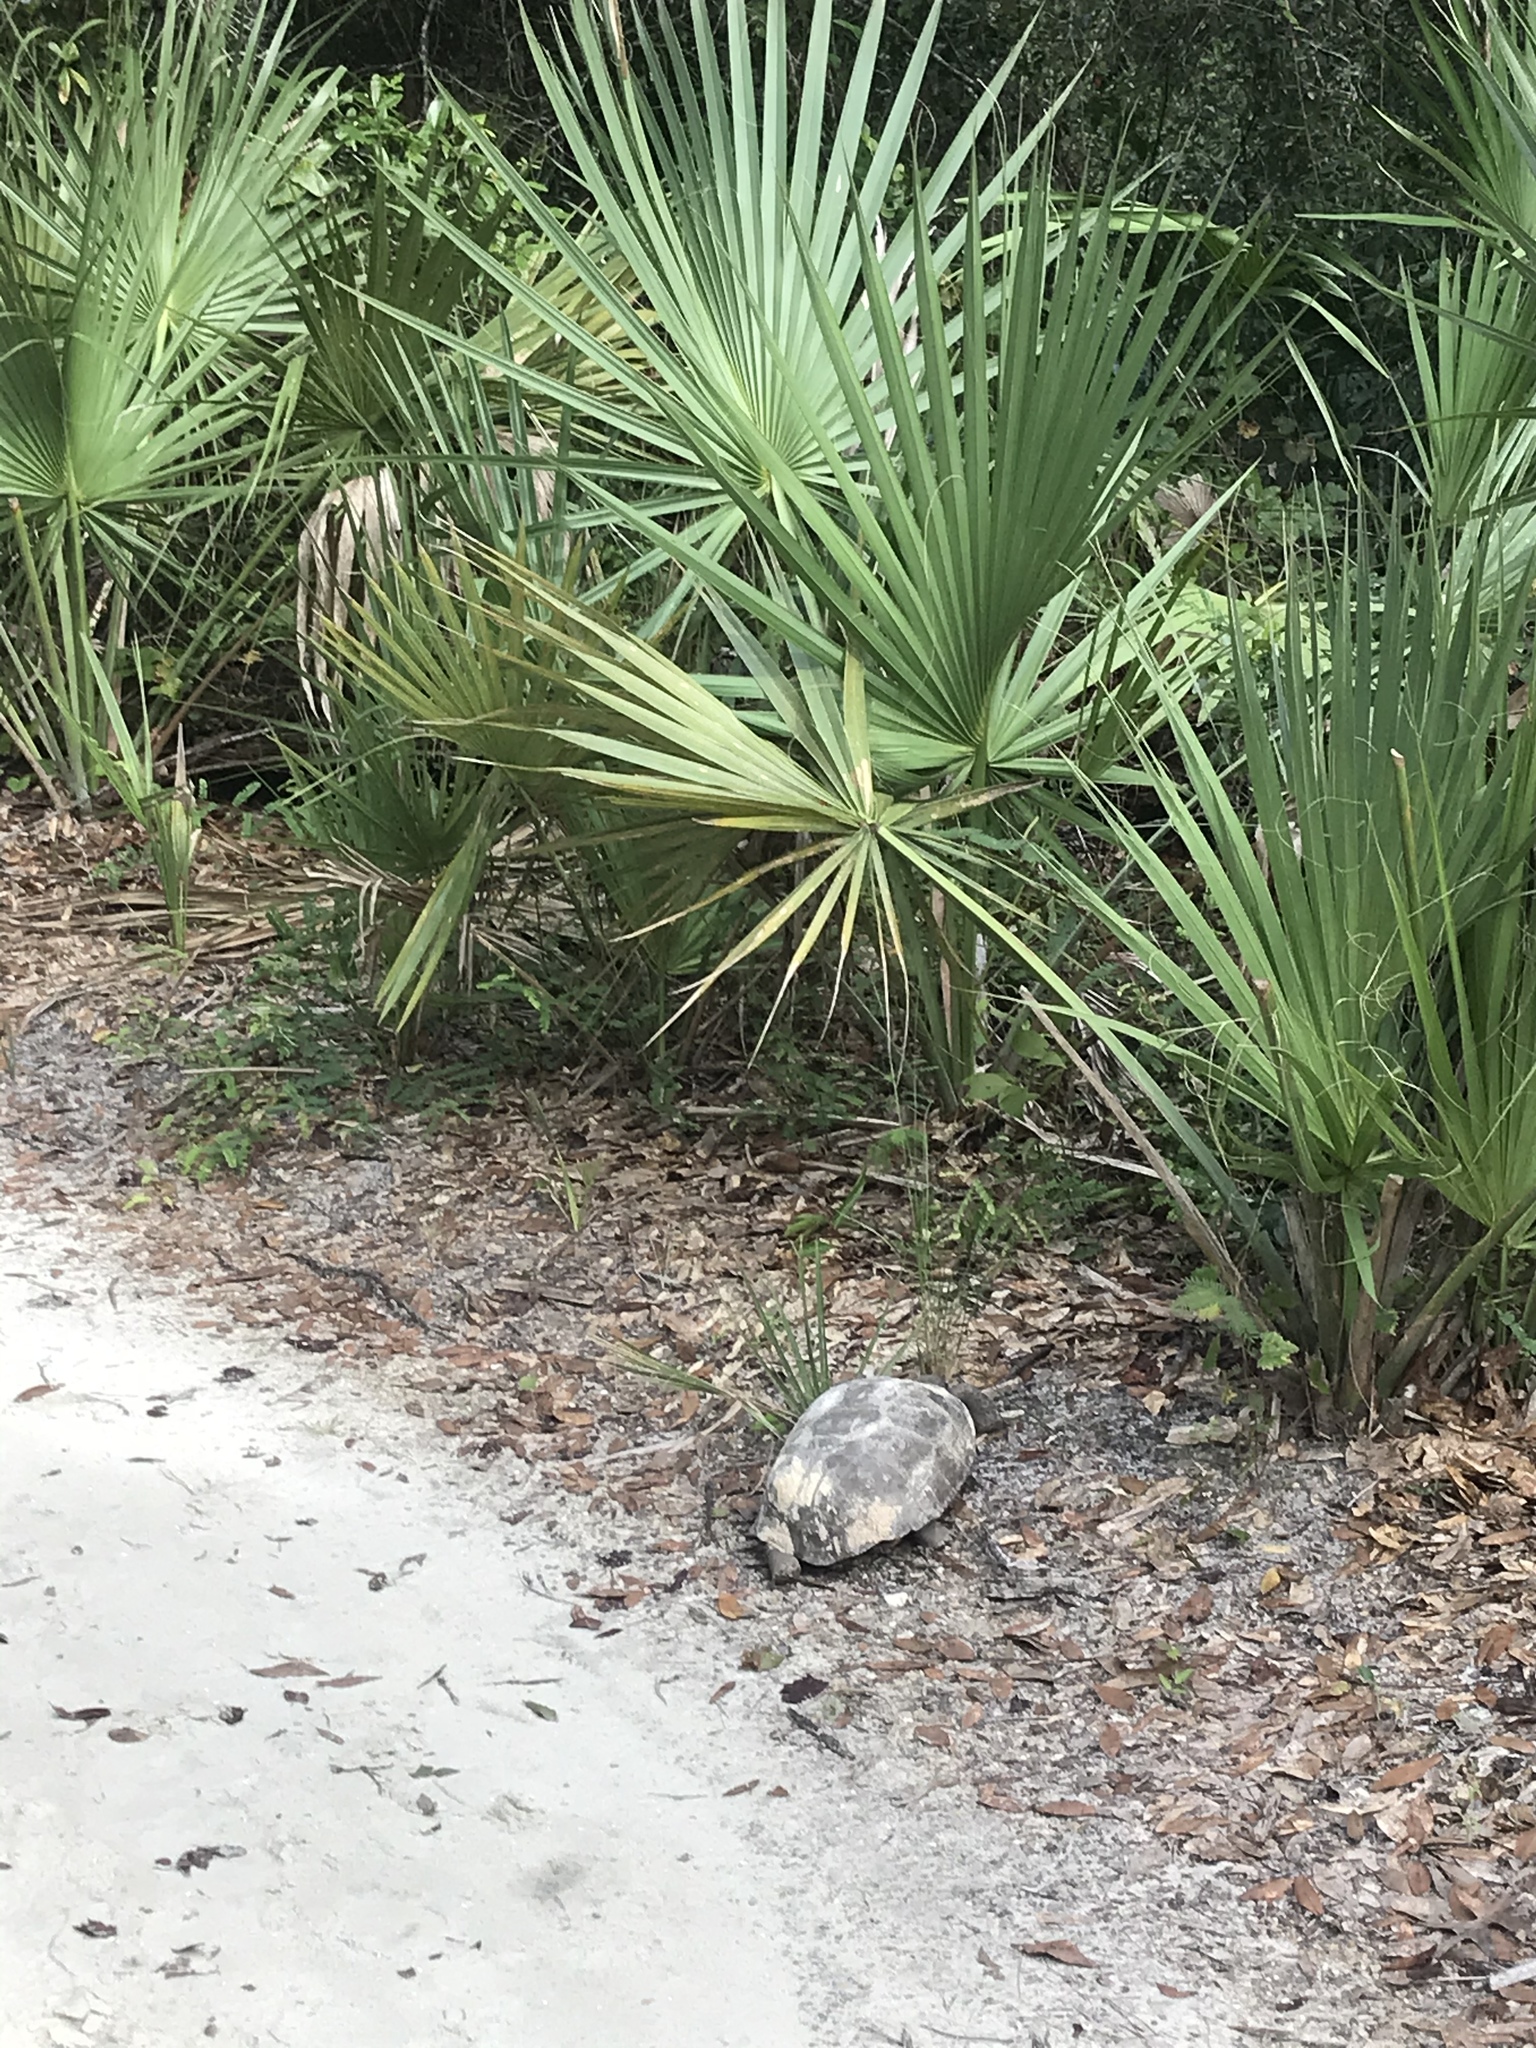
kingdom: Animalia
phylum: Chordata
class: Testudines
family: Testudinidae
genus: Gopherus
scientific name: Gopherus polyphemus
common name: Florida gopher tortoise
